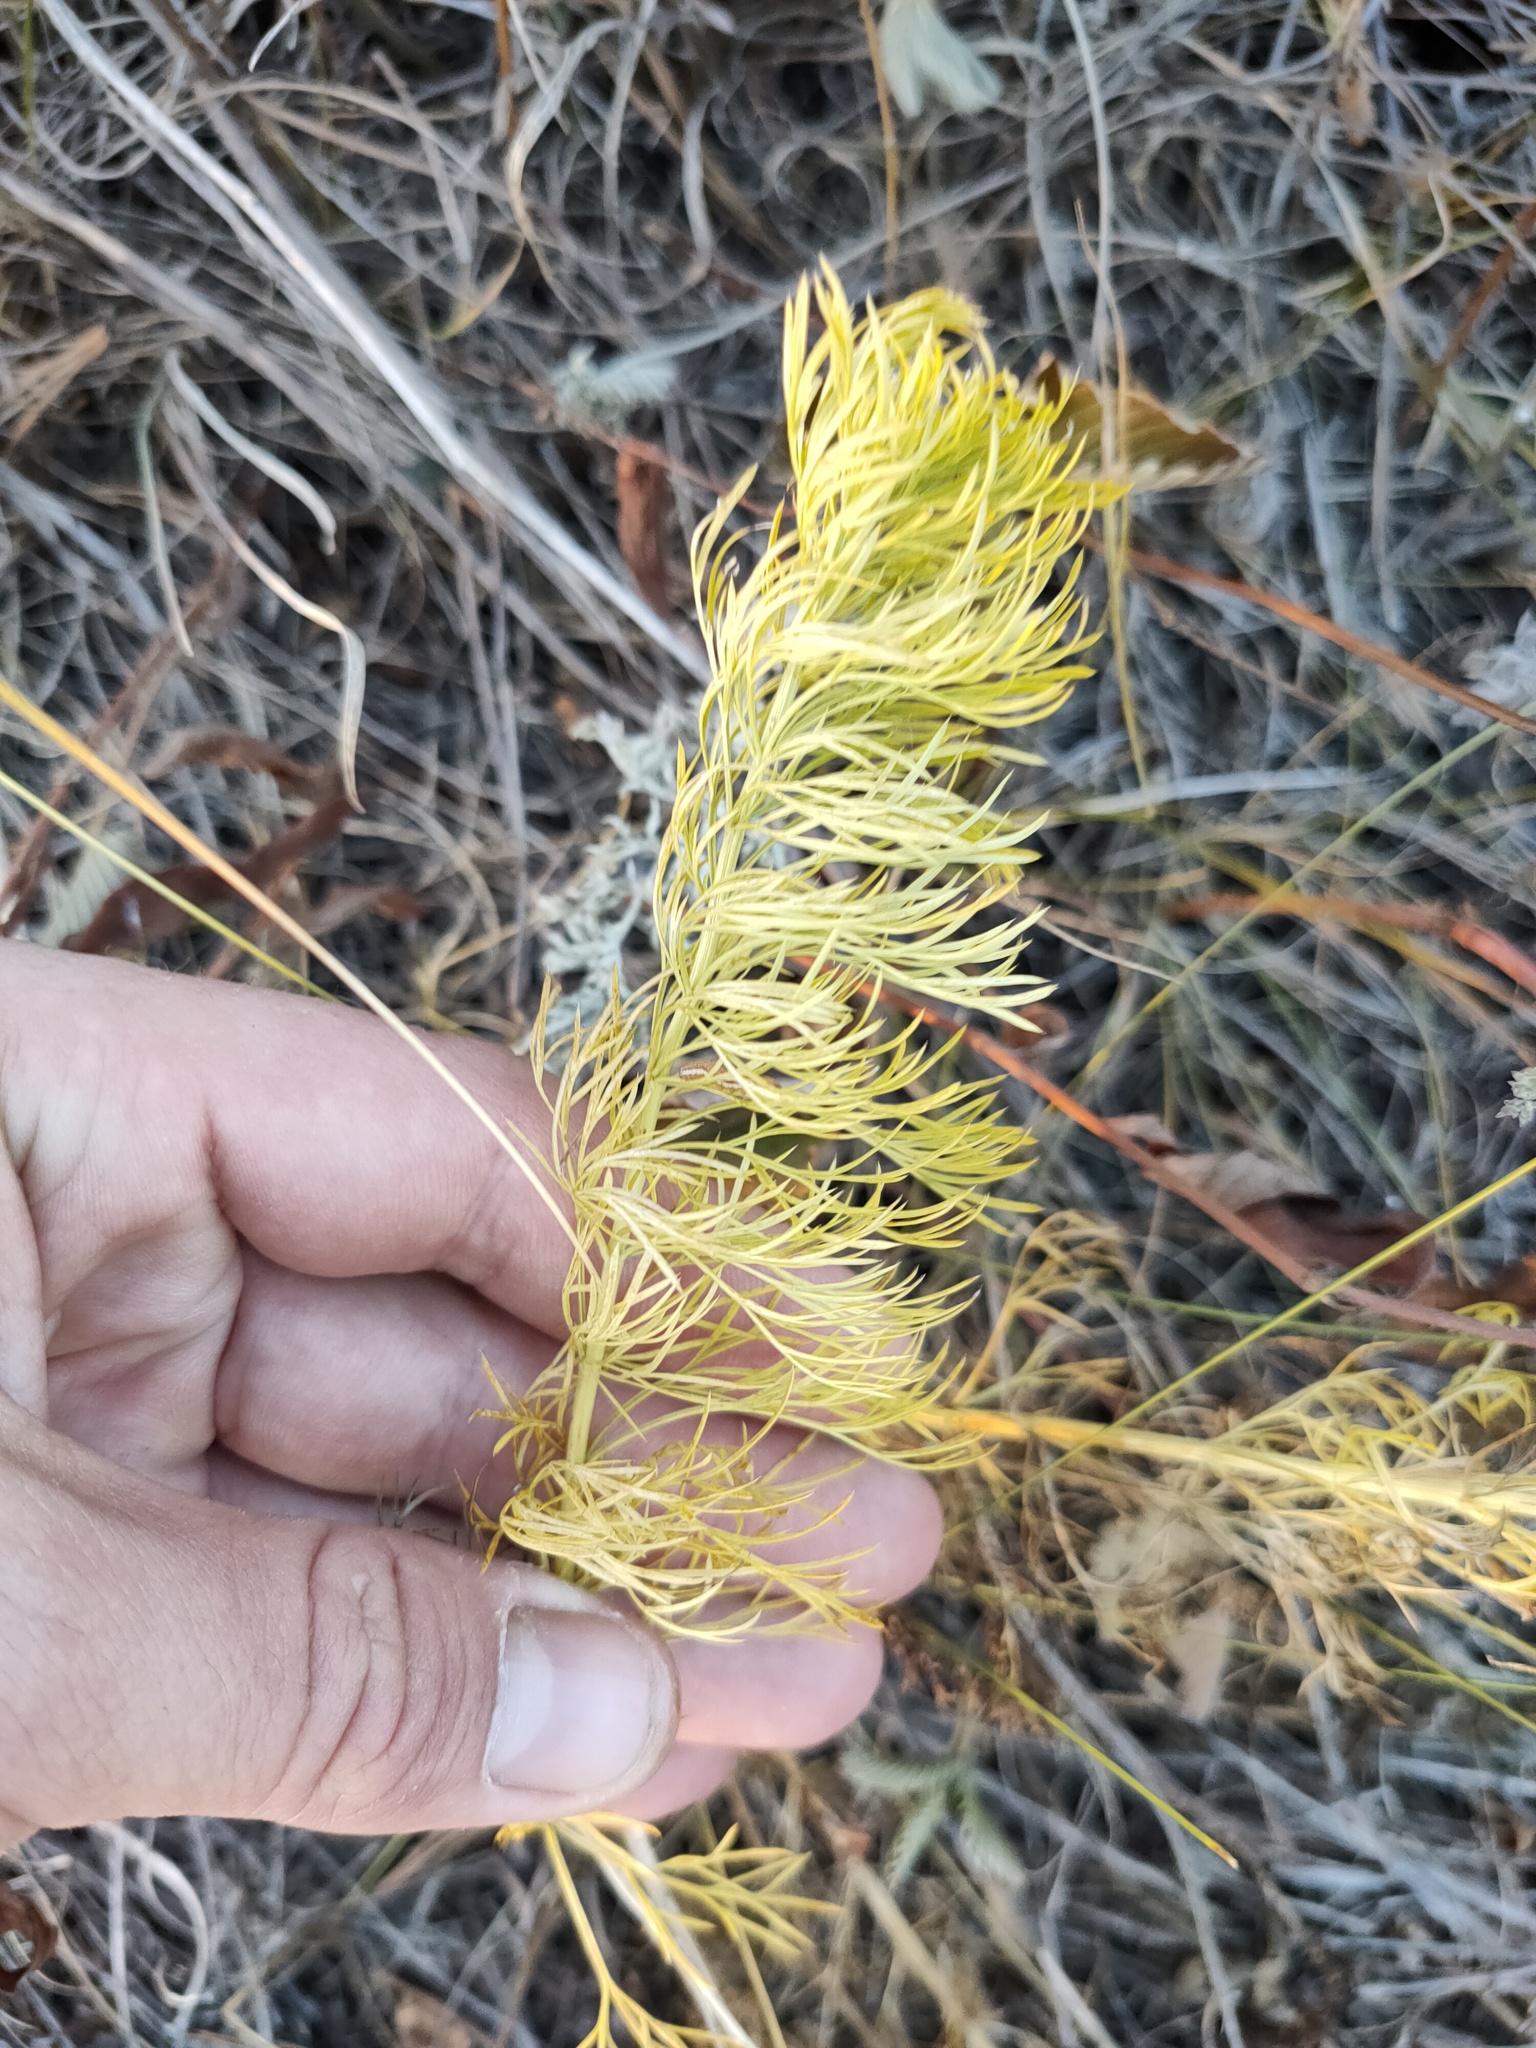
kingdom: Plantae
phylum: Tracheophyta
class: Magnoliopsida
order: Ranunculales
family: Ranunculaceae
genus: Adonis
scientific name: Adonis vernalis
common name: Yellow pheasants-eye
